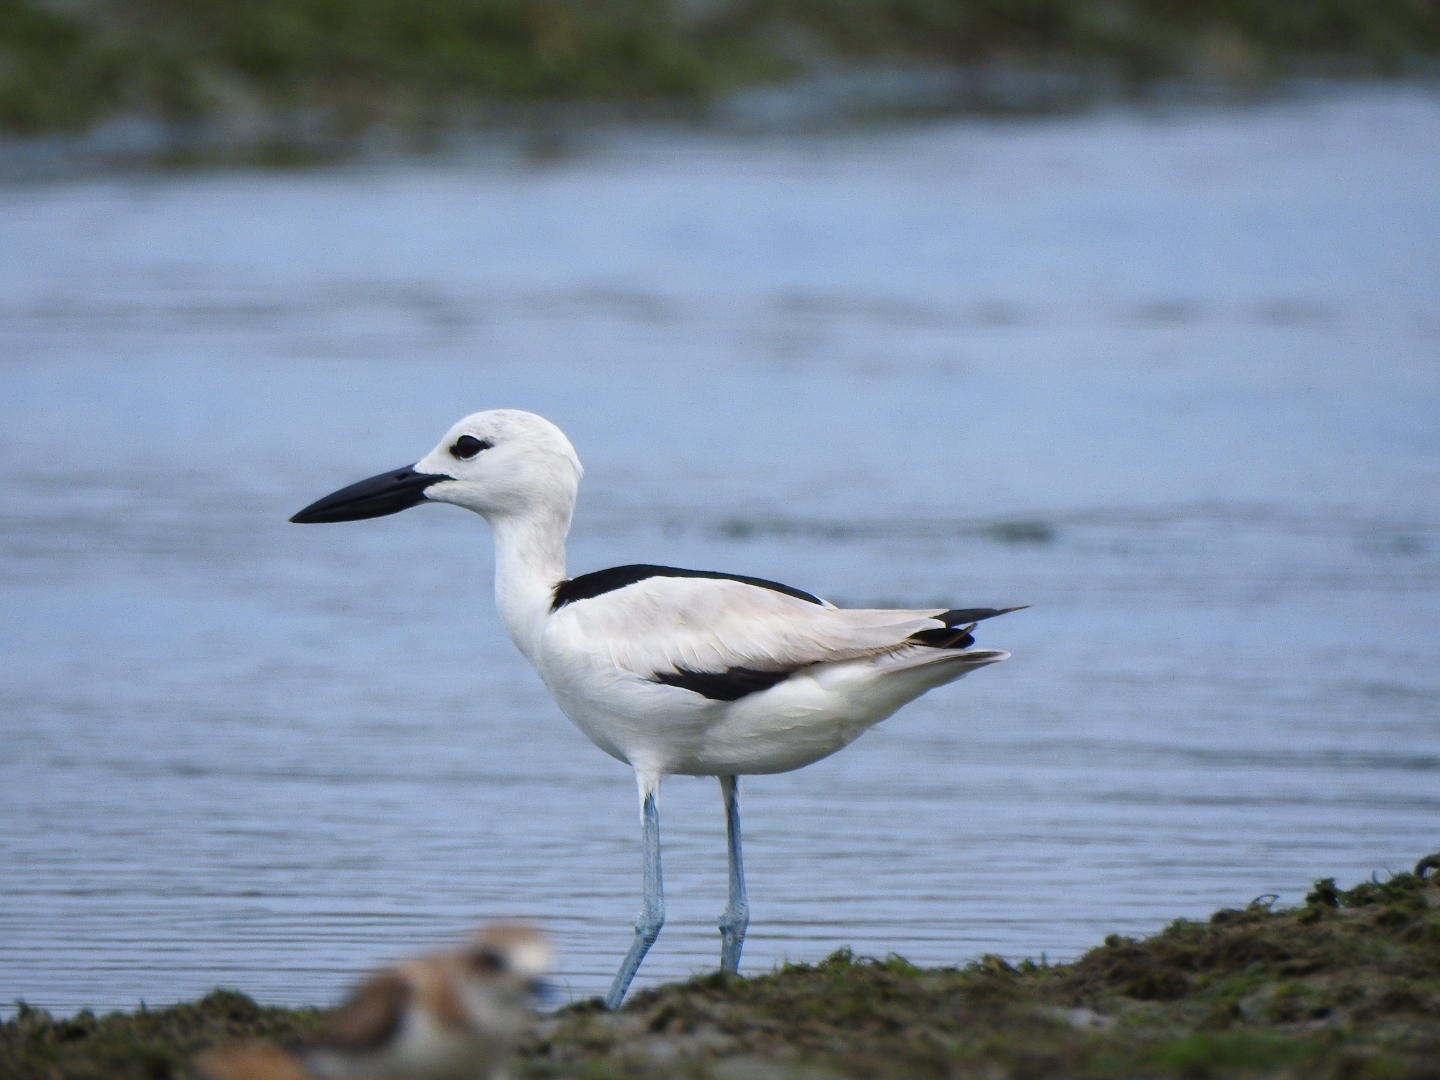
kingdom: Animalia
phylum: Chordata
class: Aves
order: Charadriiformes
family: Dromadidae
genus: Dromas
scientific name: Dromas ardeola
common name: Crab-plover
